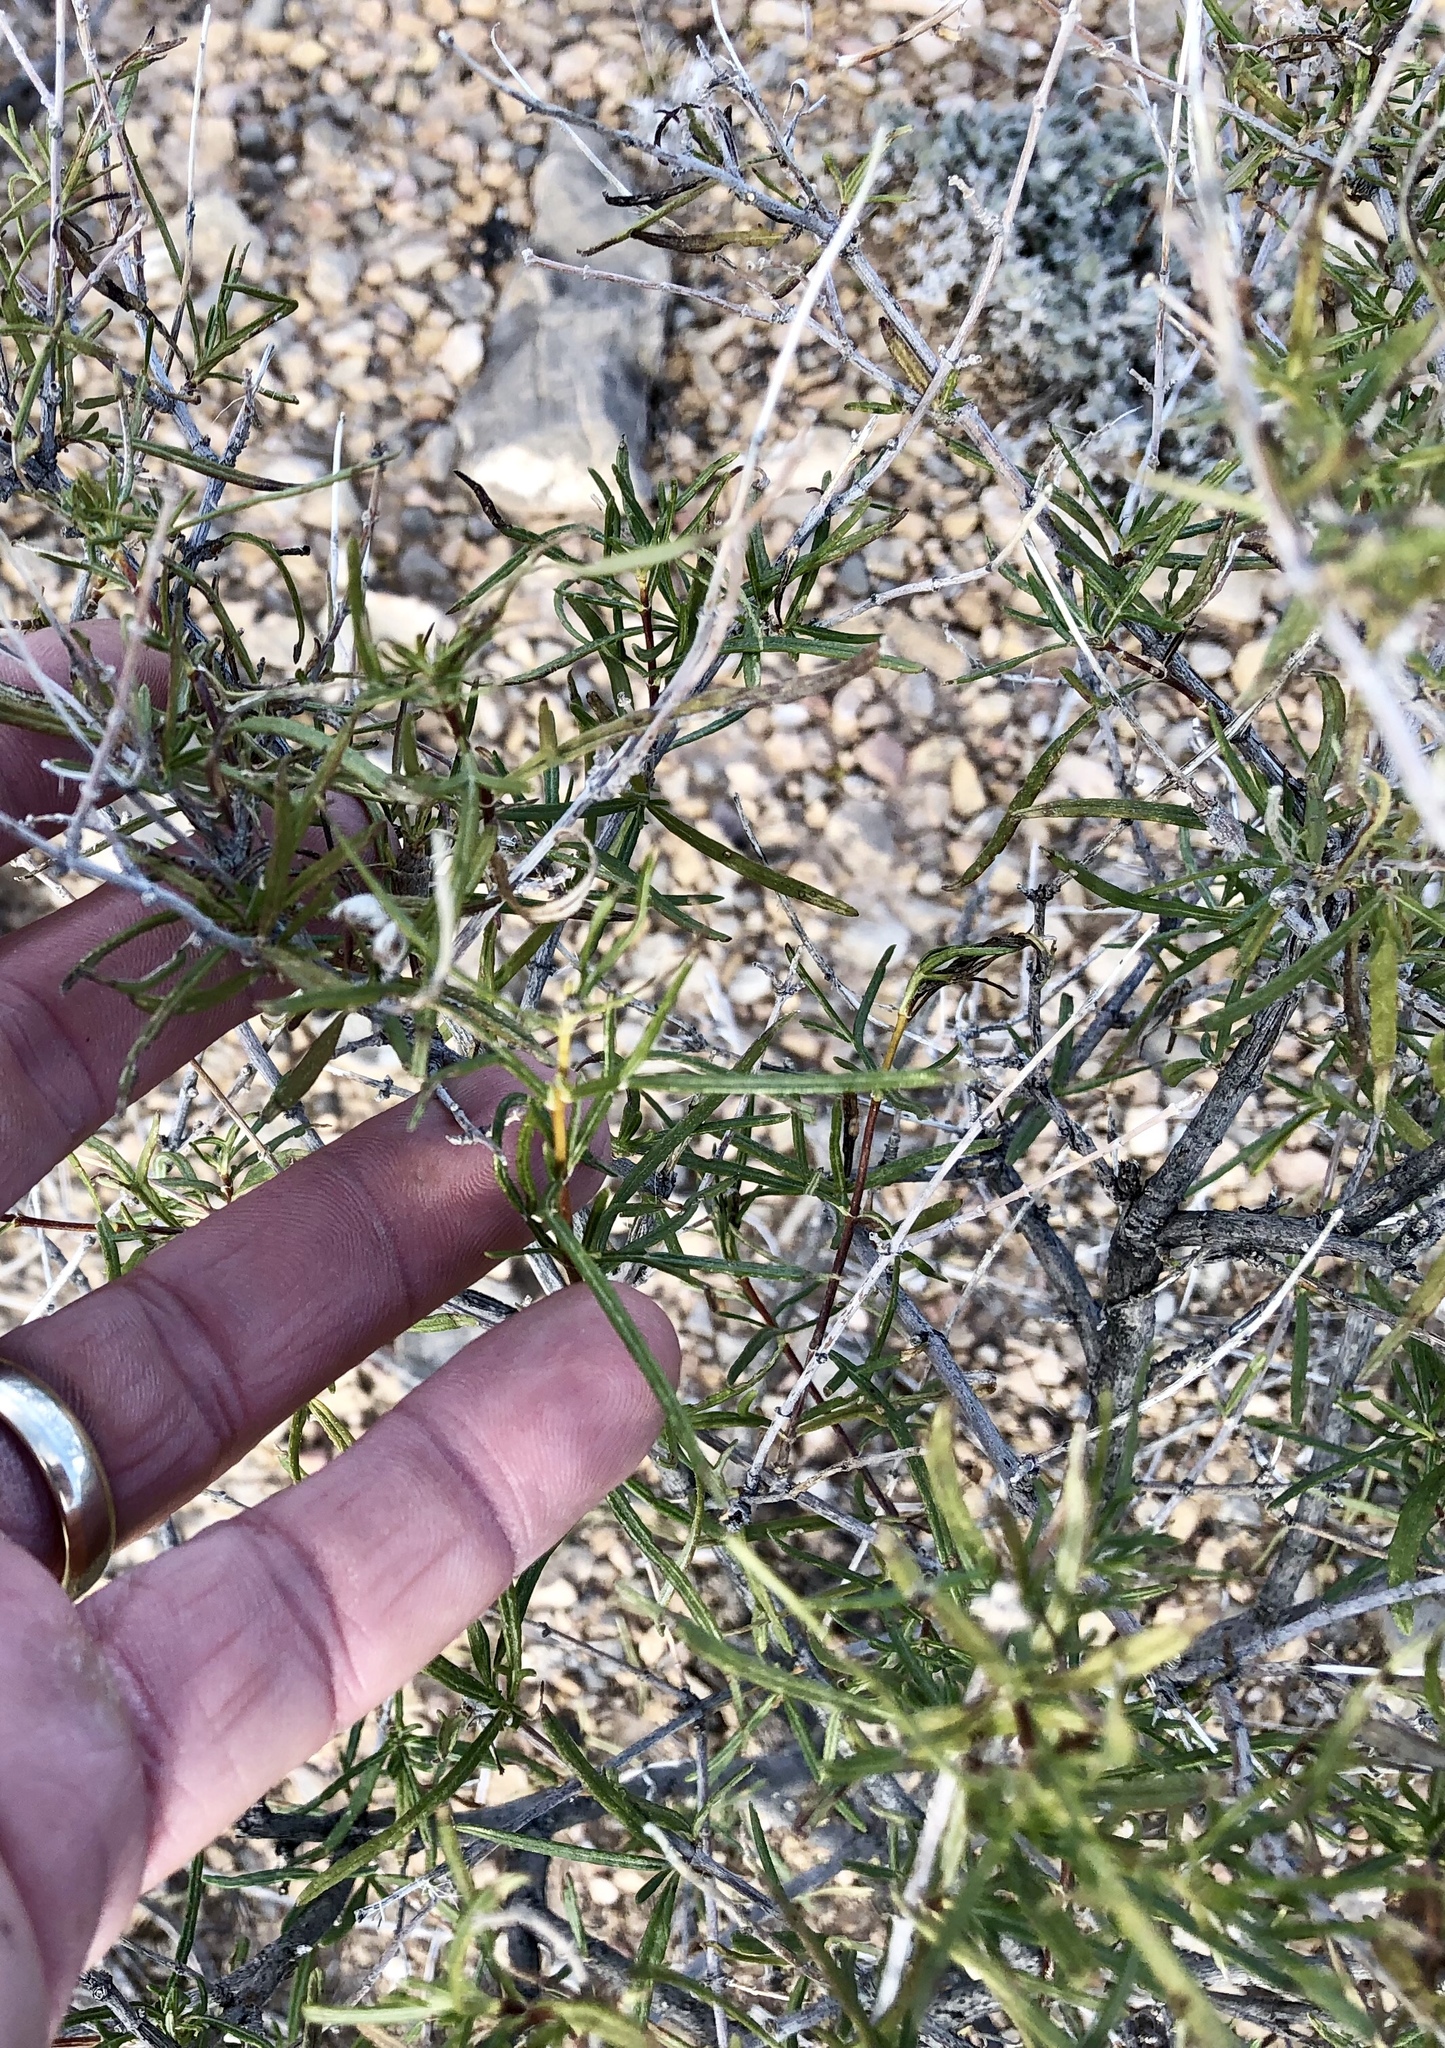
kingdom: Plantae
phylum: Tracheophyta
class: Magnoliopsida
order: Asterales
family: Asteraceae
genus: Sidneya
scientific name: Sidneya tenuifolia
